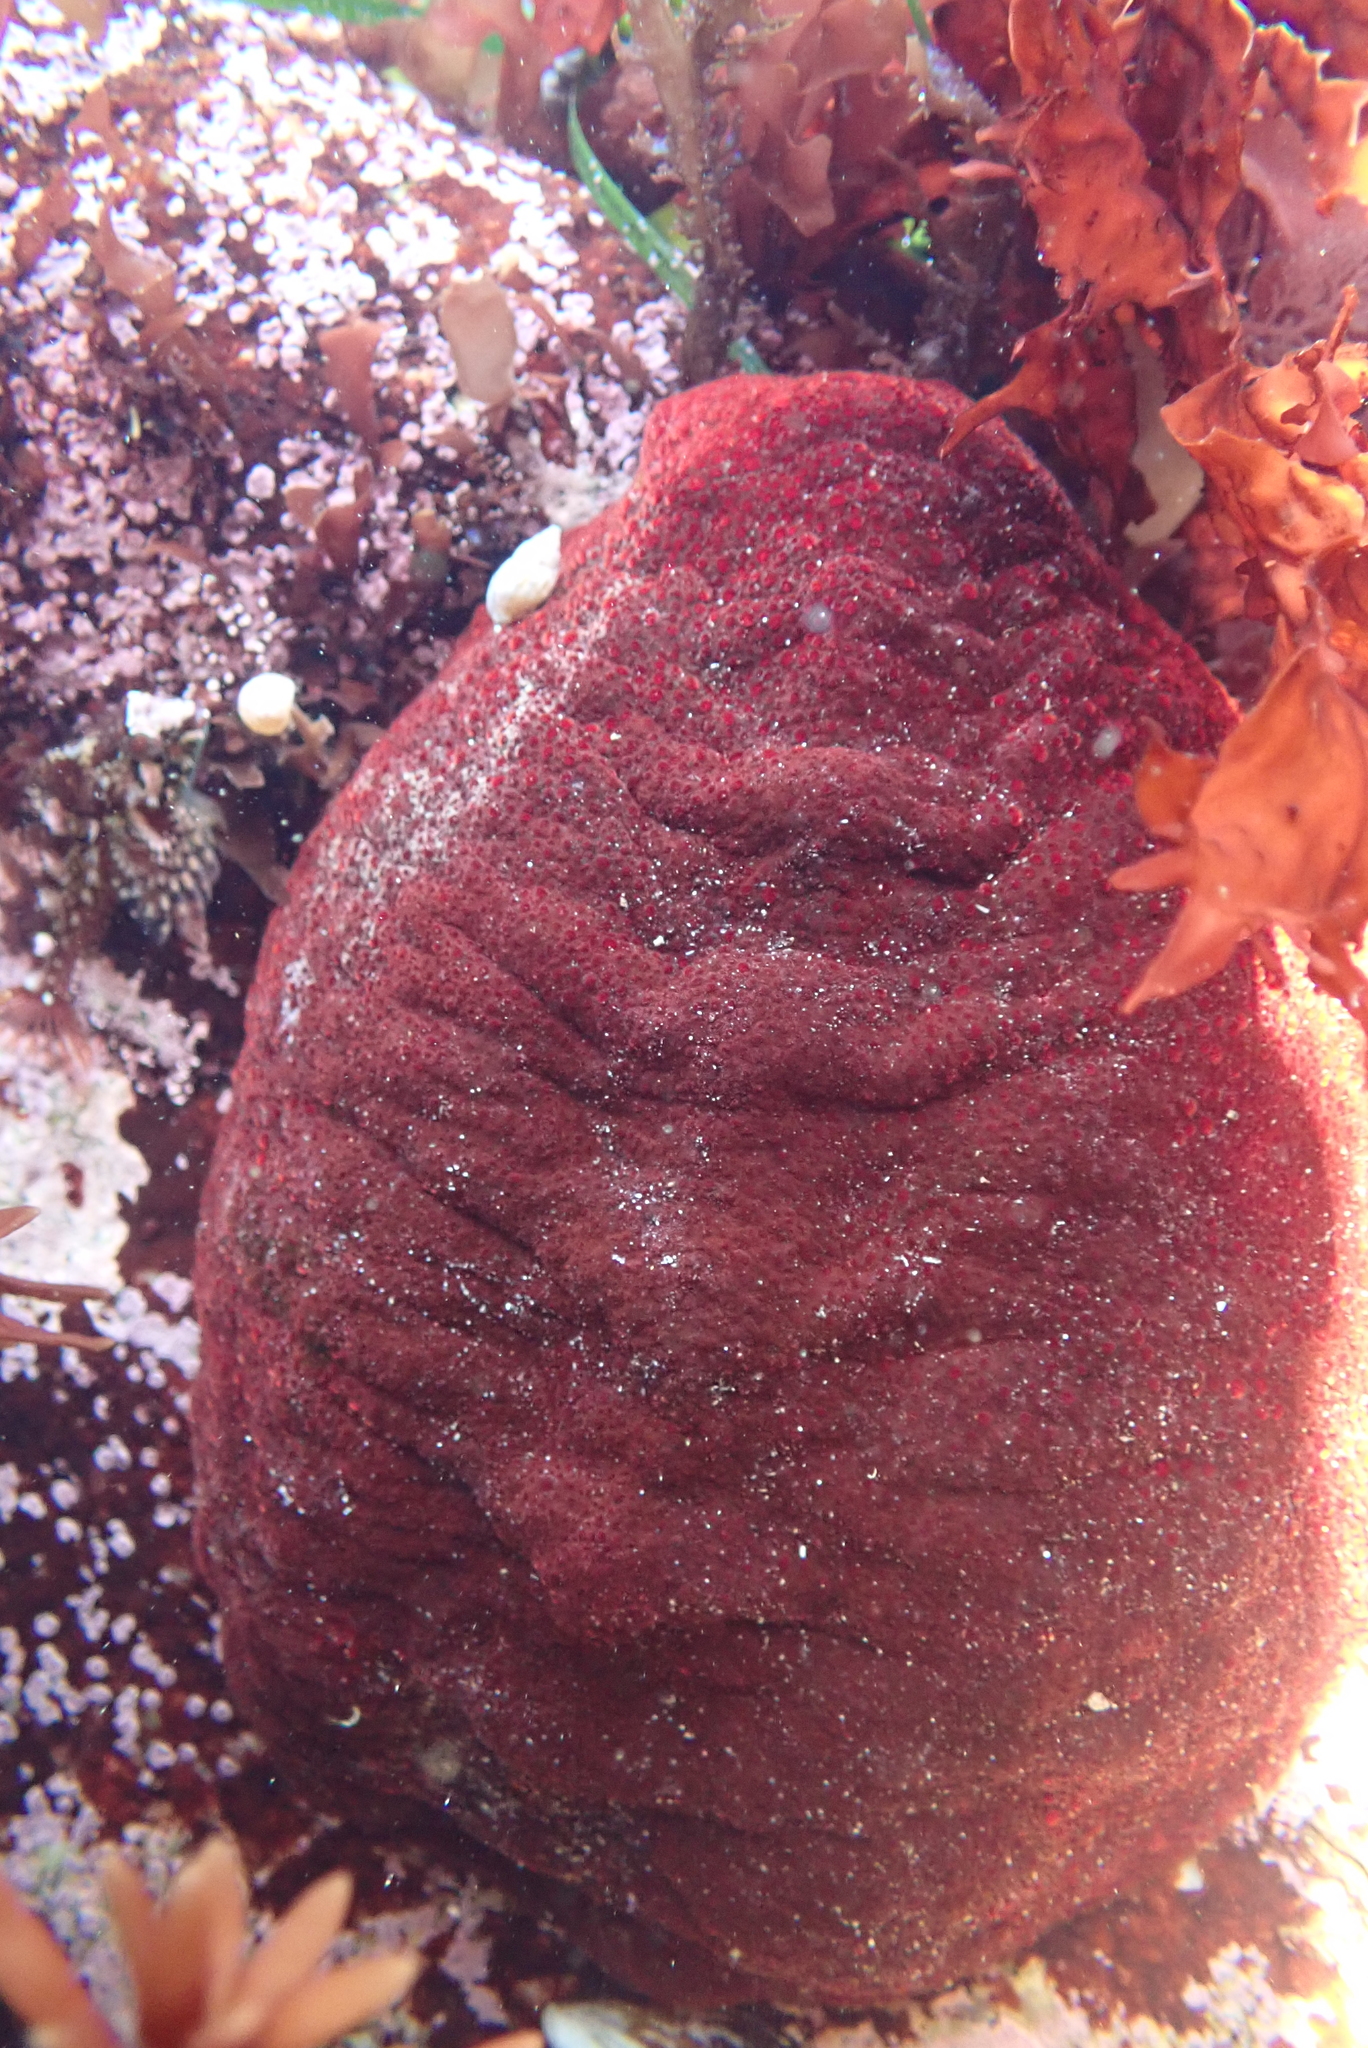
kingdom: Animalia
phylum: Mollusca
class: Polyplacophora
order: Chitonida
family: Acanthochitonidae
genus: Cryptochiton
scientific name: Cryptochiton stelleri
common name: Giant pacific chiton
